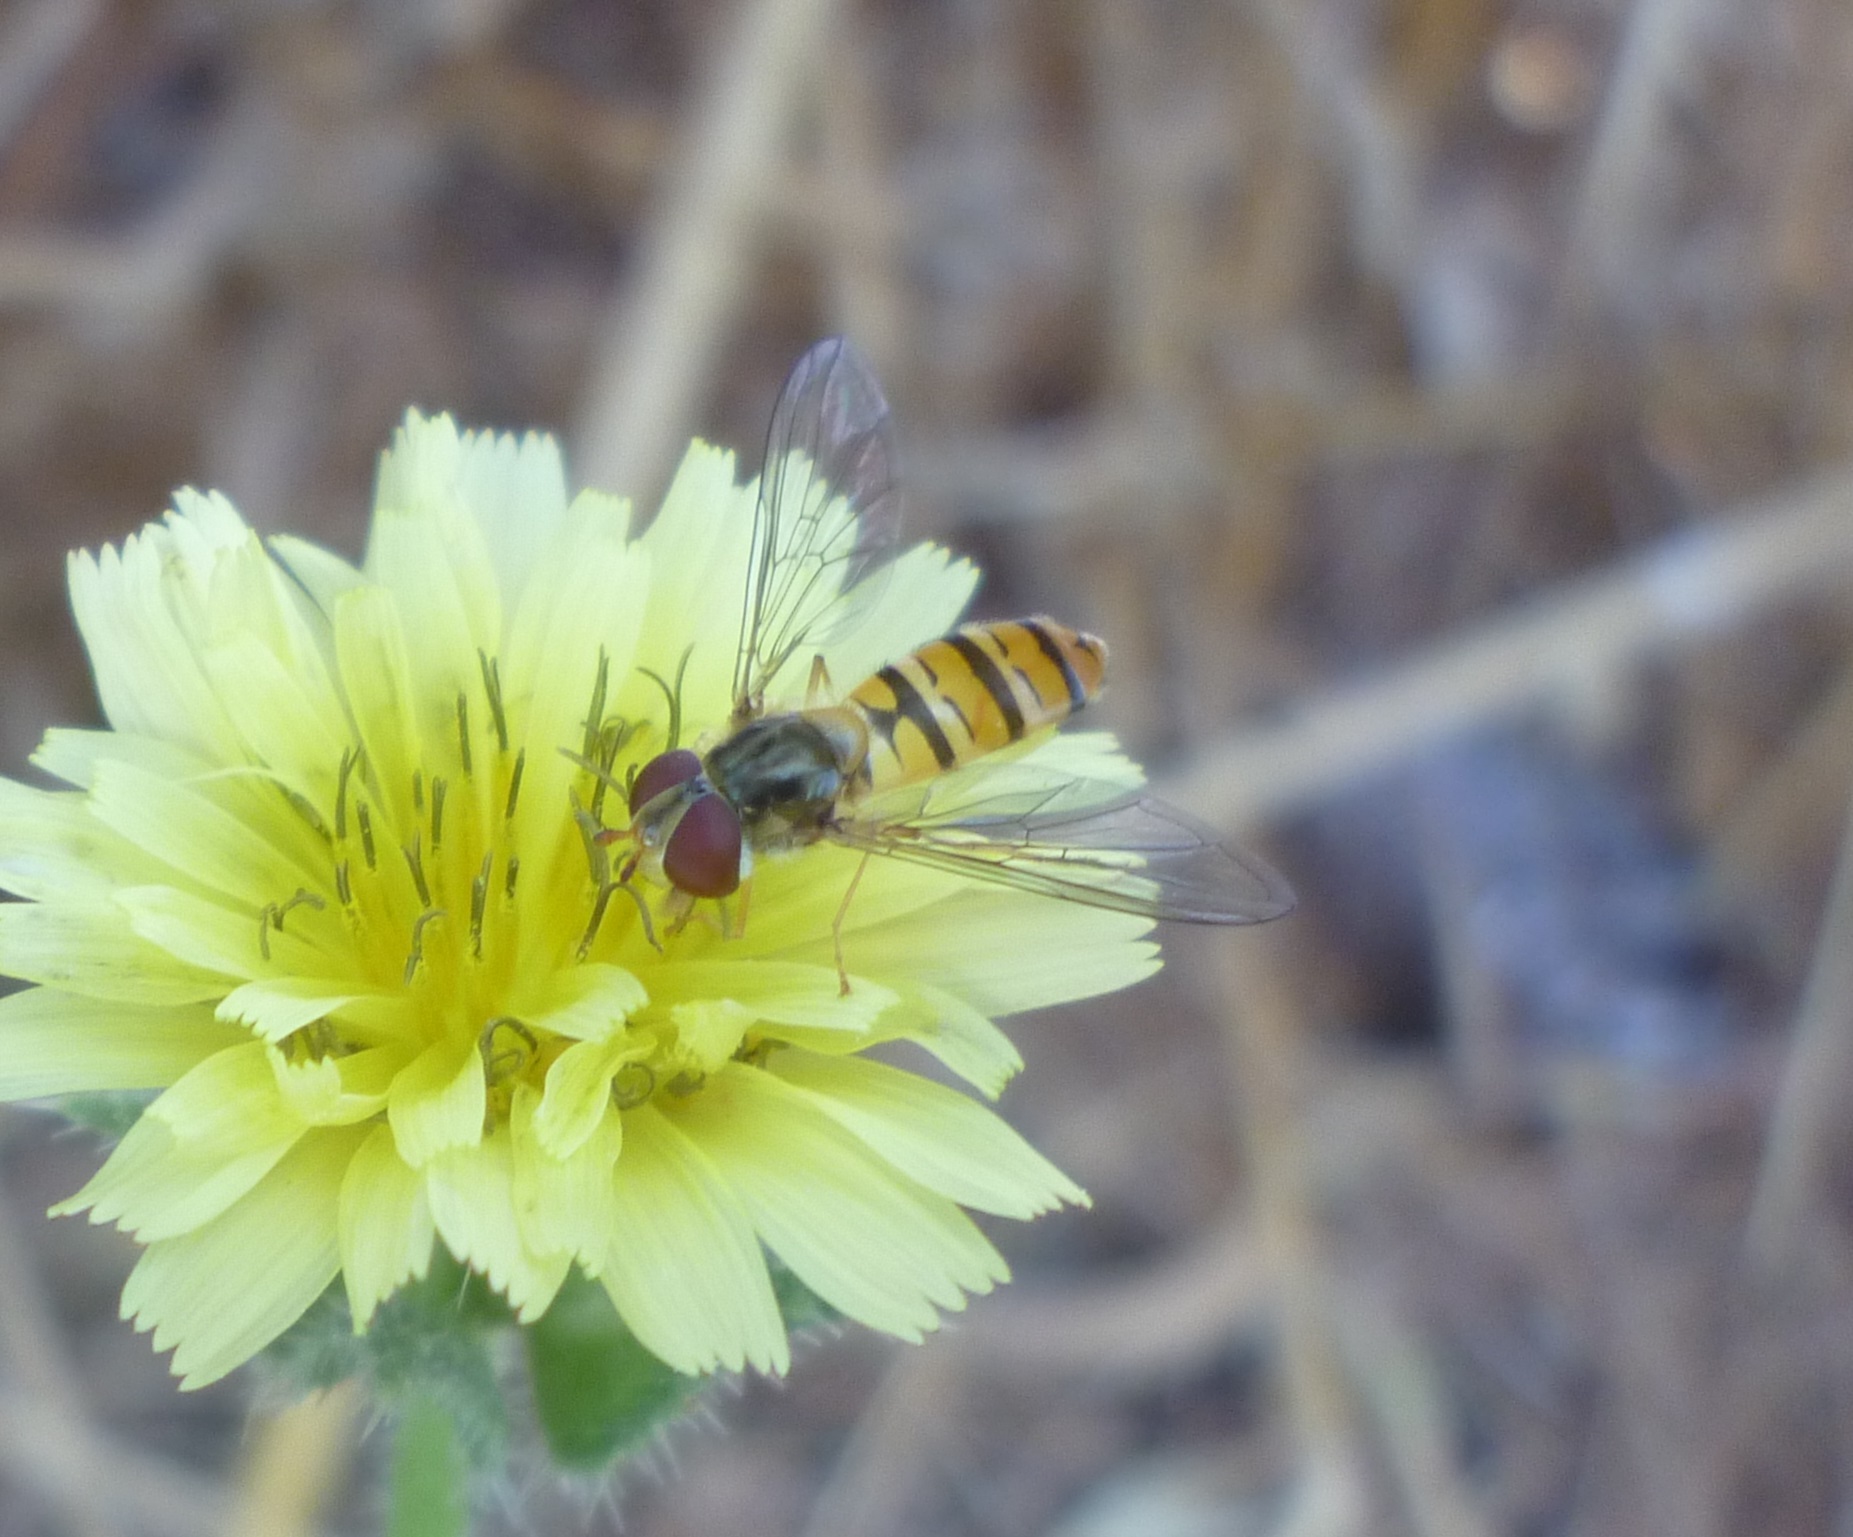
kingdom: Animalia
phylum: Arthropoda
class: Insecta
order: Diptera
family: Syrphidae
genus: Episyrphus
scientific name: Episyrphus balteatus
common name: Marmalade hoverfly
